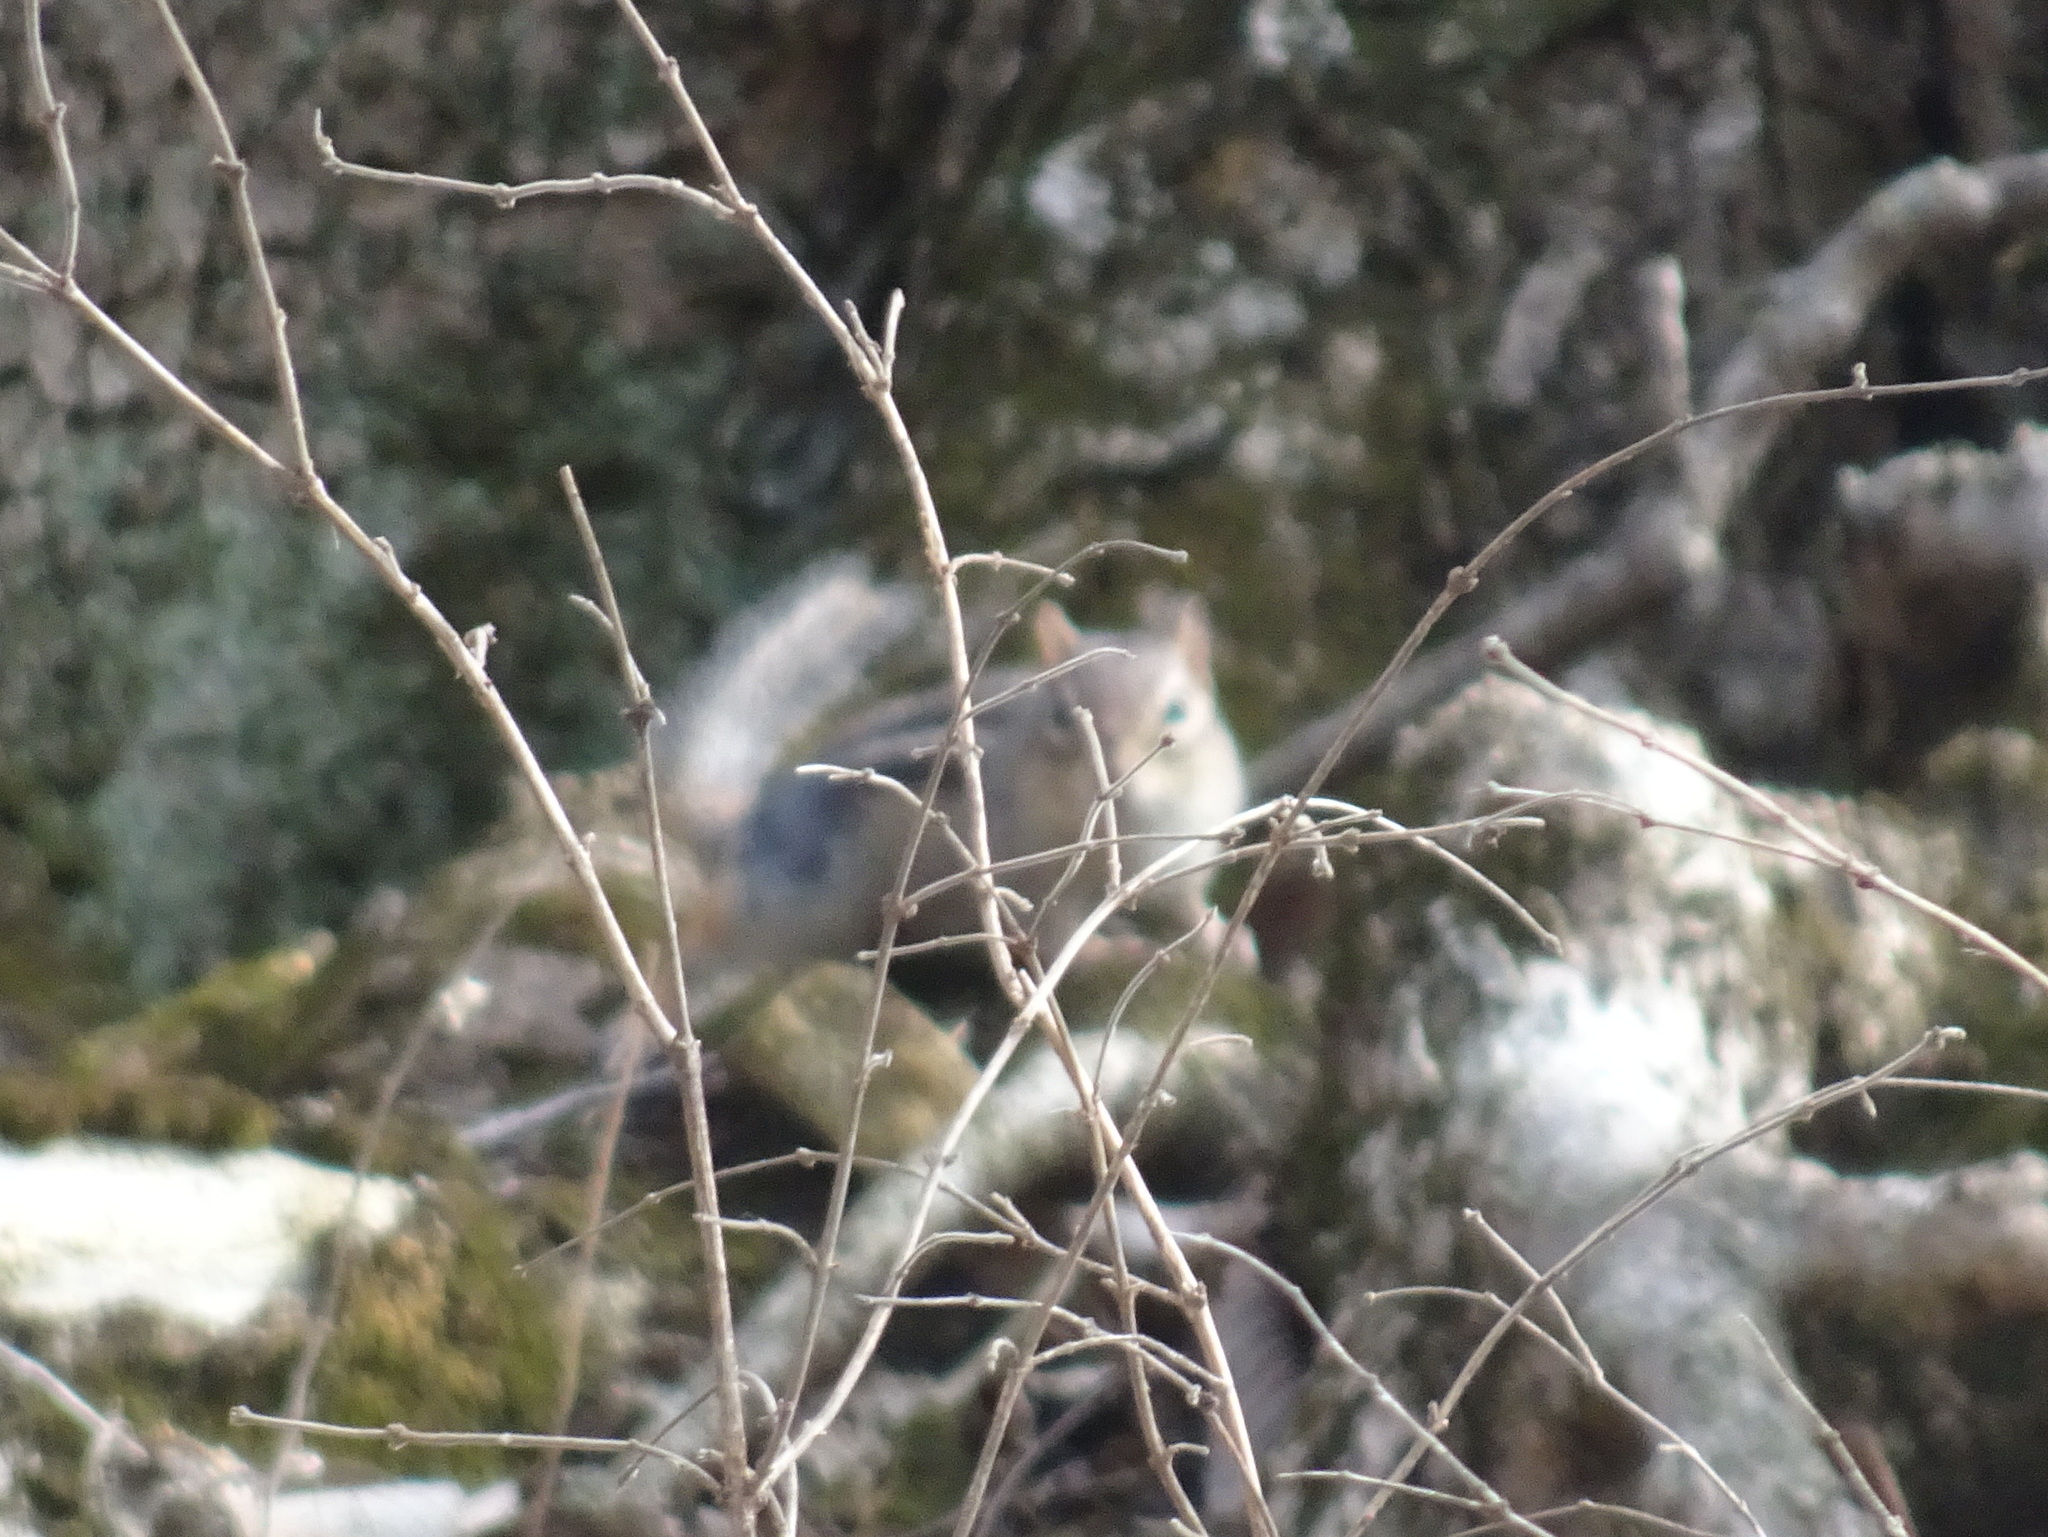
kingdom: Animalia
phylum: Chordata
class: Mammalia
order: Rodentia
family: Sciuridae
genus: Tamias
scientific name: Tamias striatus
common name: Eastern chipmunk
